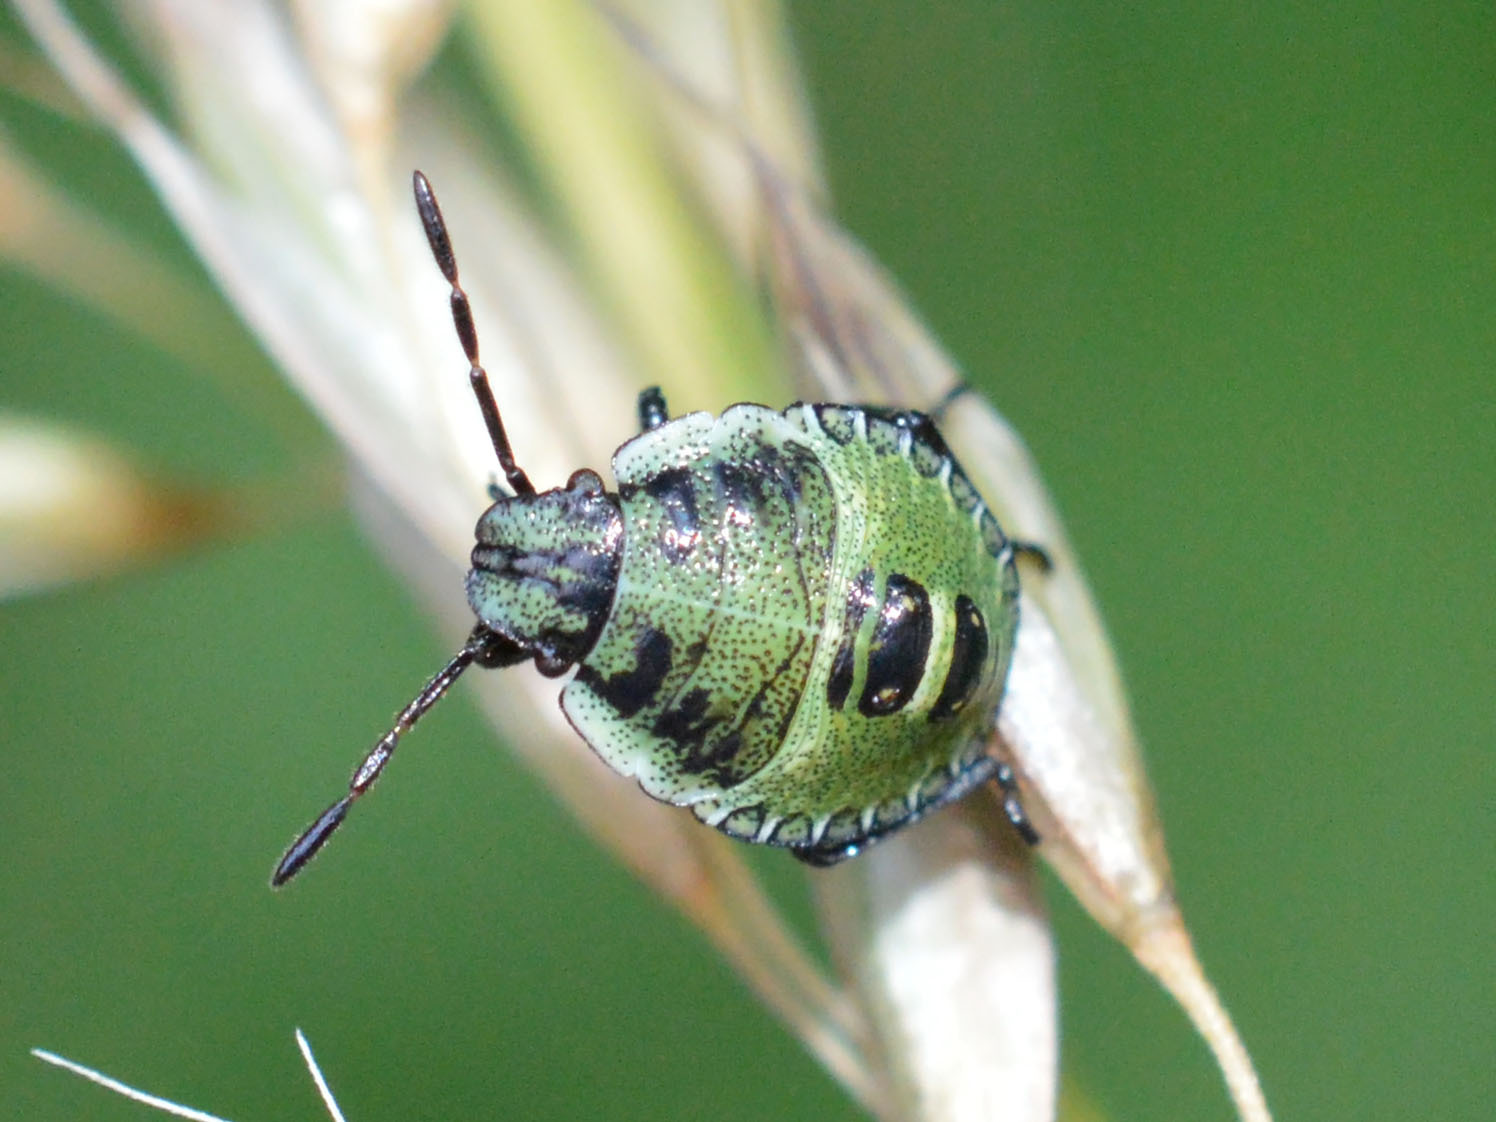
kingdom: Animalia
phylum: Arthropoda
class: Insecta
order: Hemiptera
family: Pentatomidae
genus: Palomena
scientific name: Palomena prasina
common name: Green shieldbug
